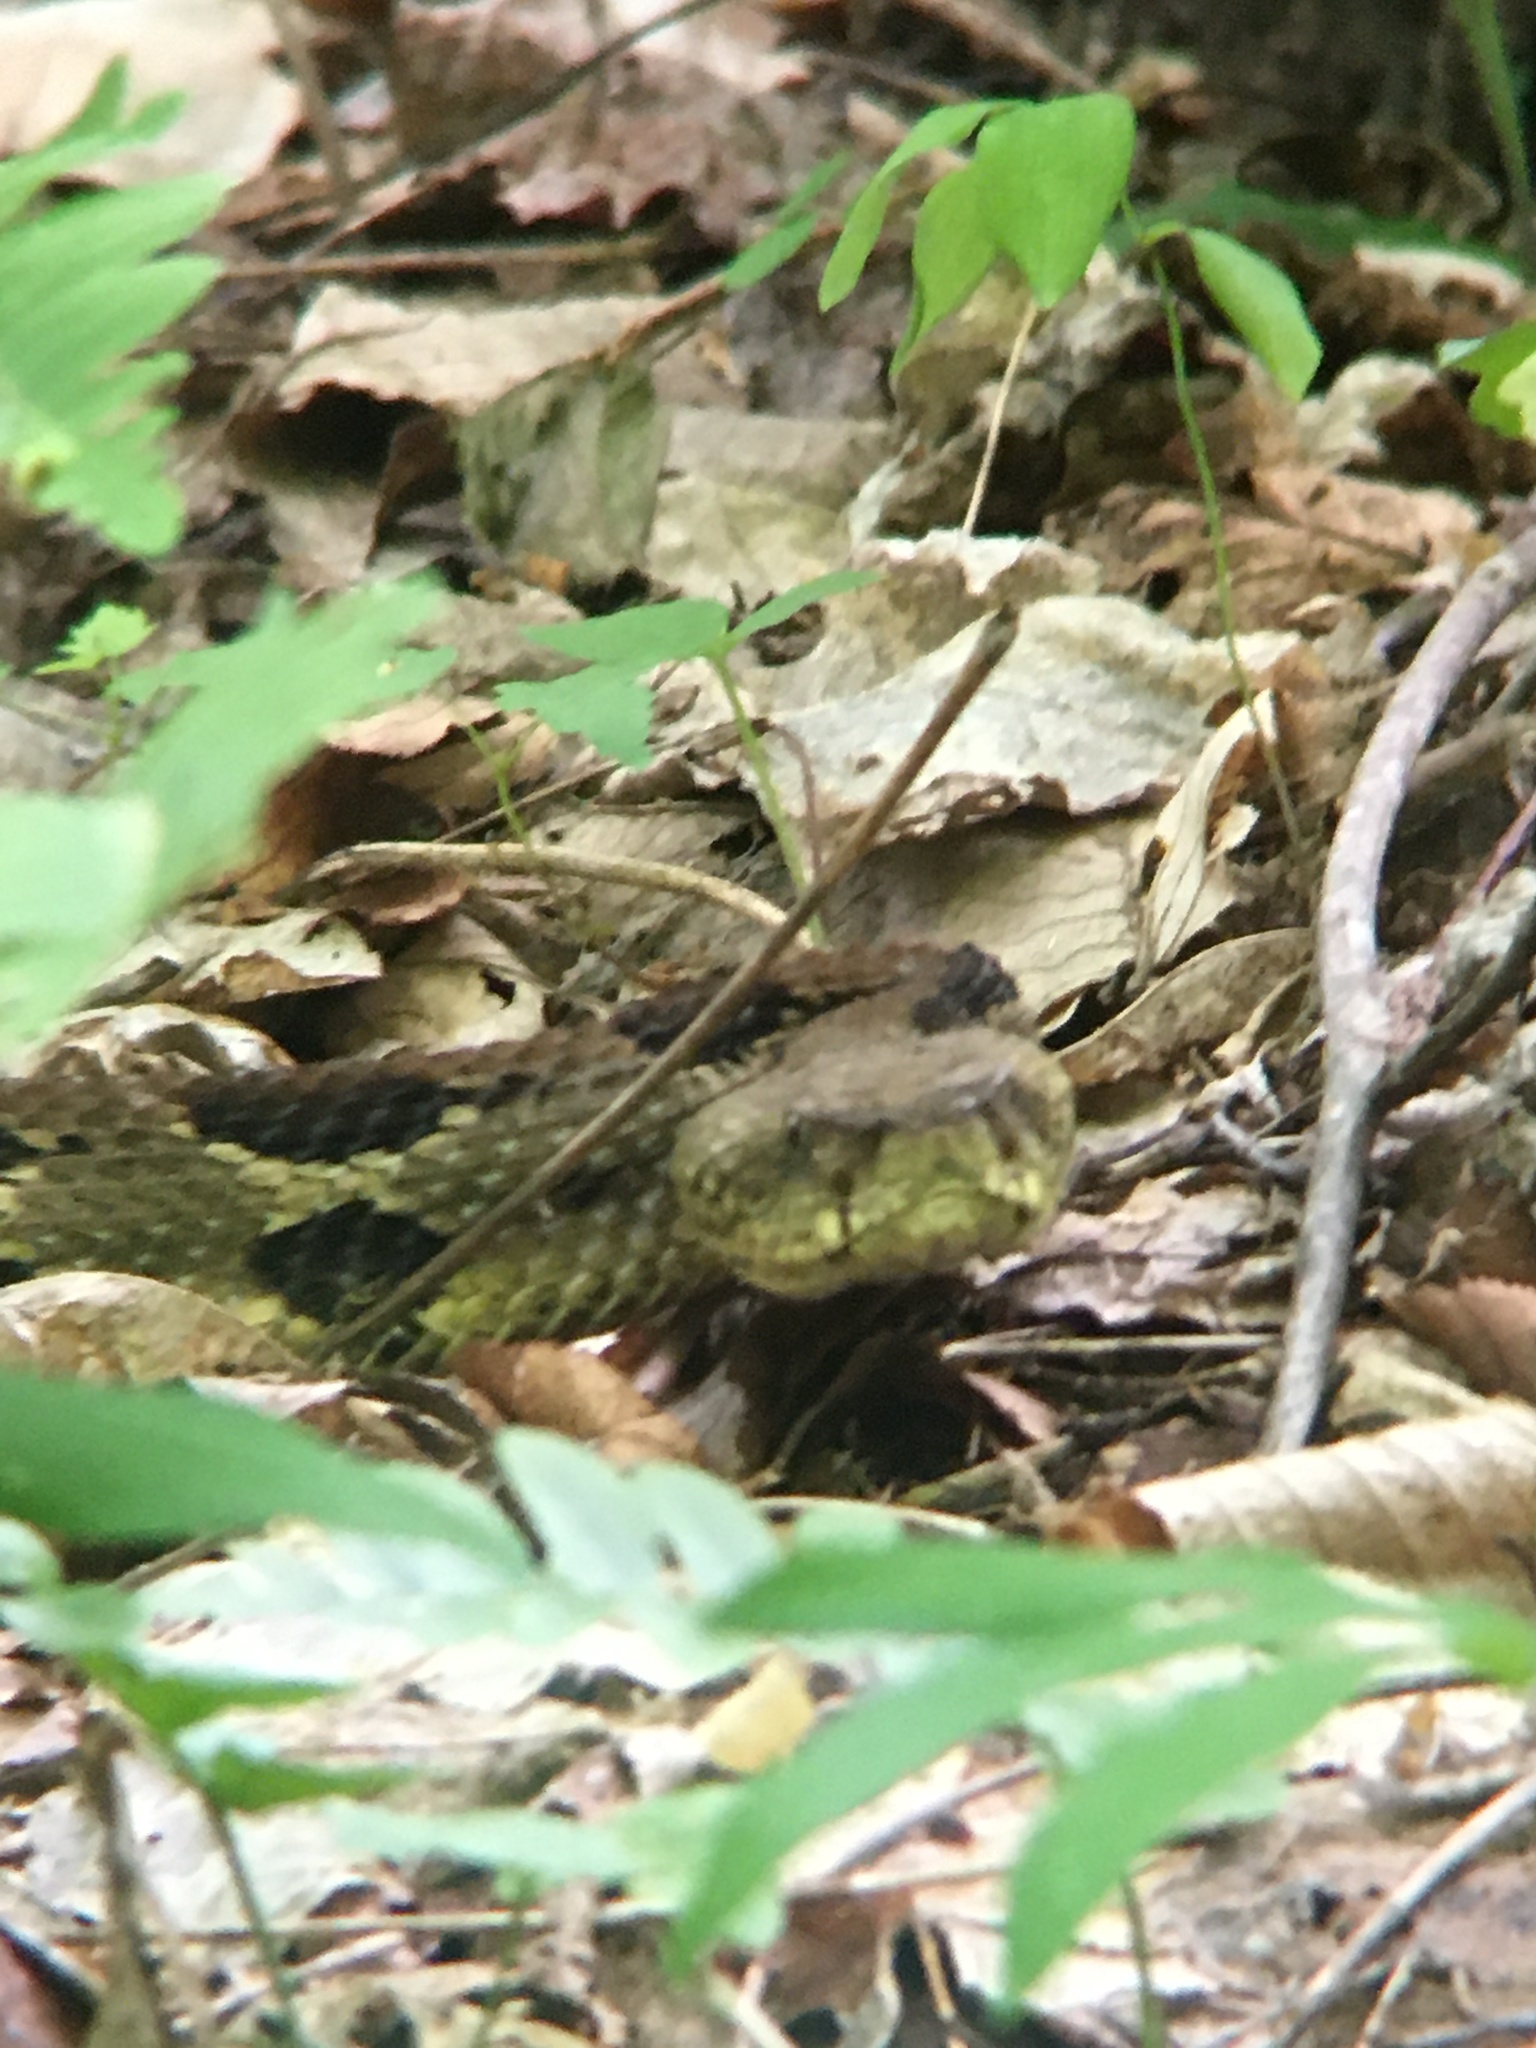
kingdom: Animalia
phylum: Chordata
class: Squamata
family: Viperidae
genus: Crotalus
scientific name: Crotalus horridus
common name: Timber rattlesnake
